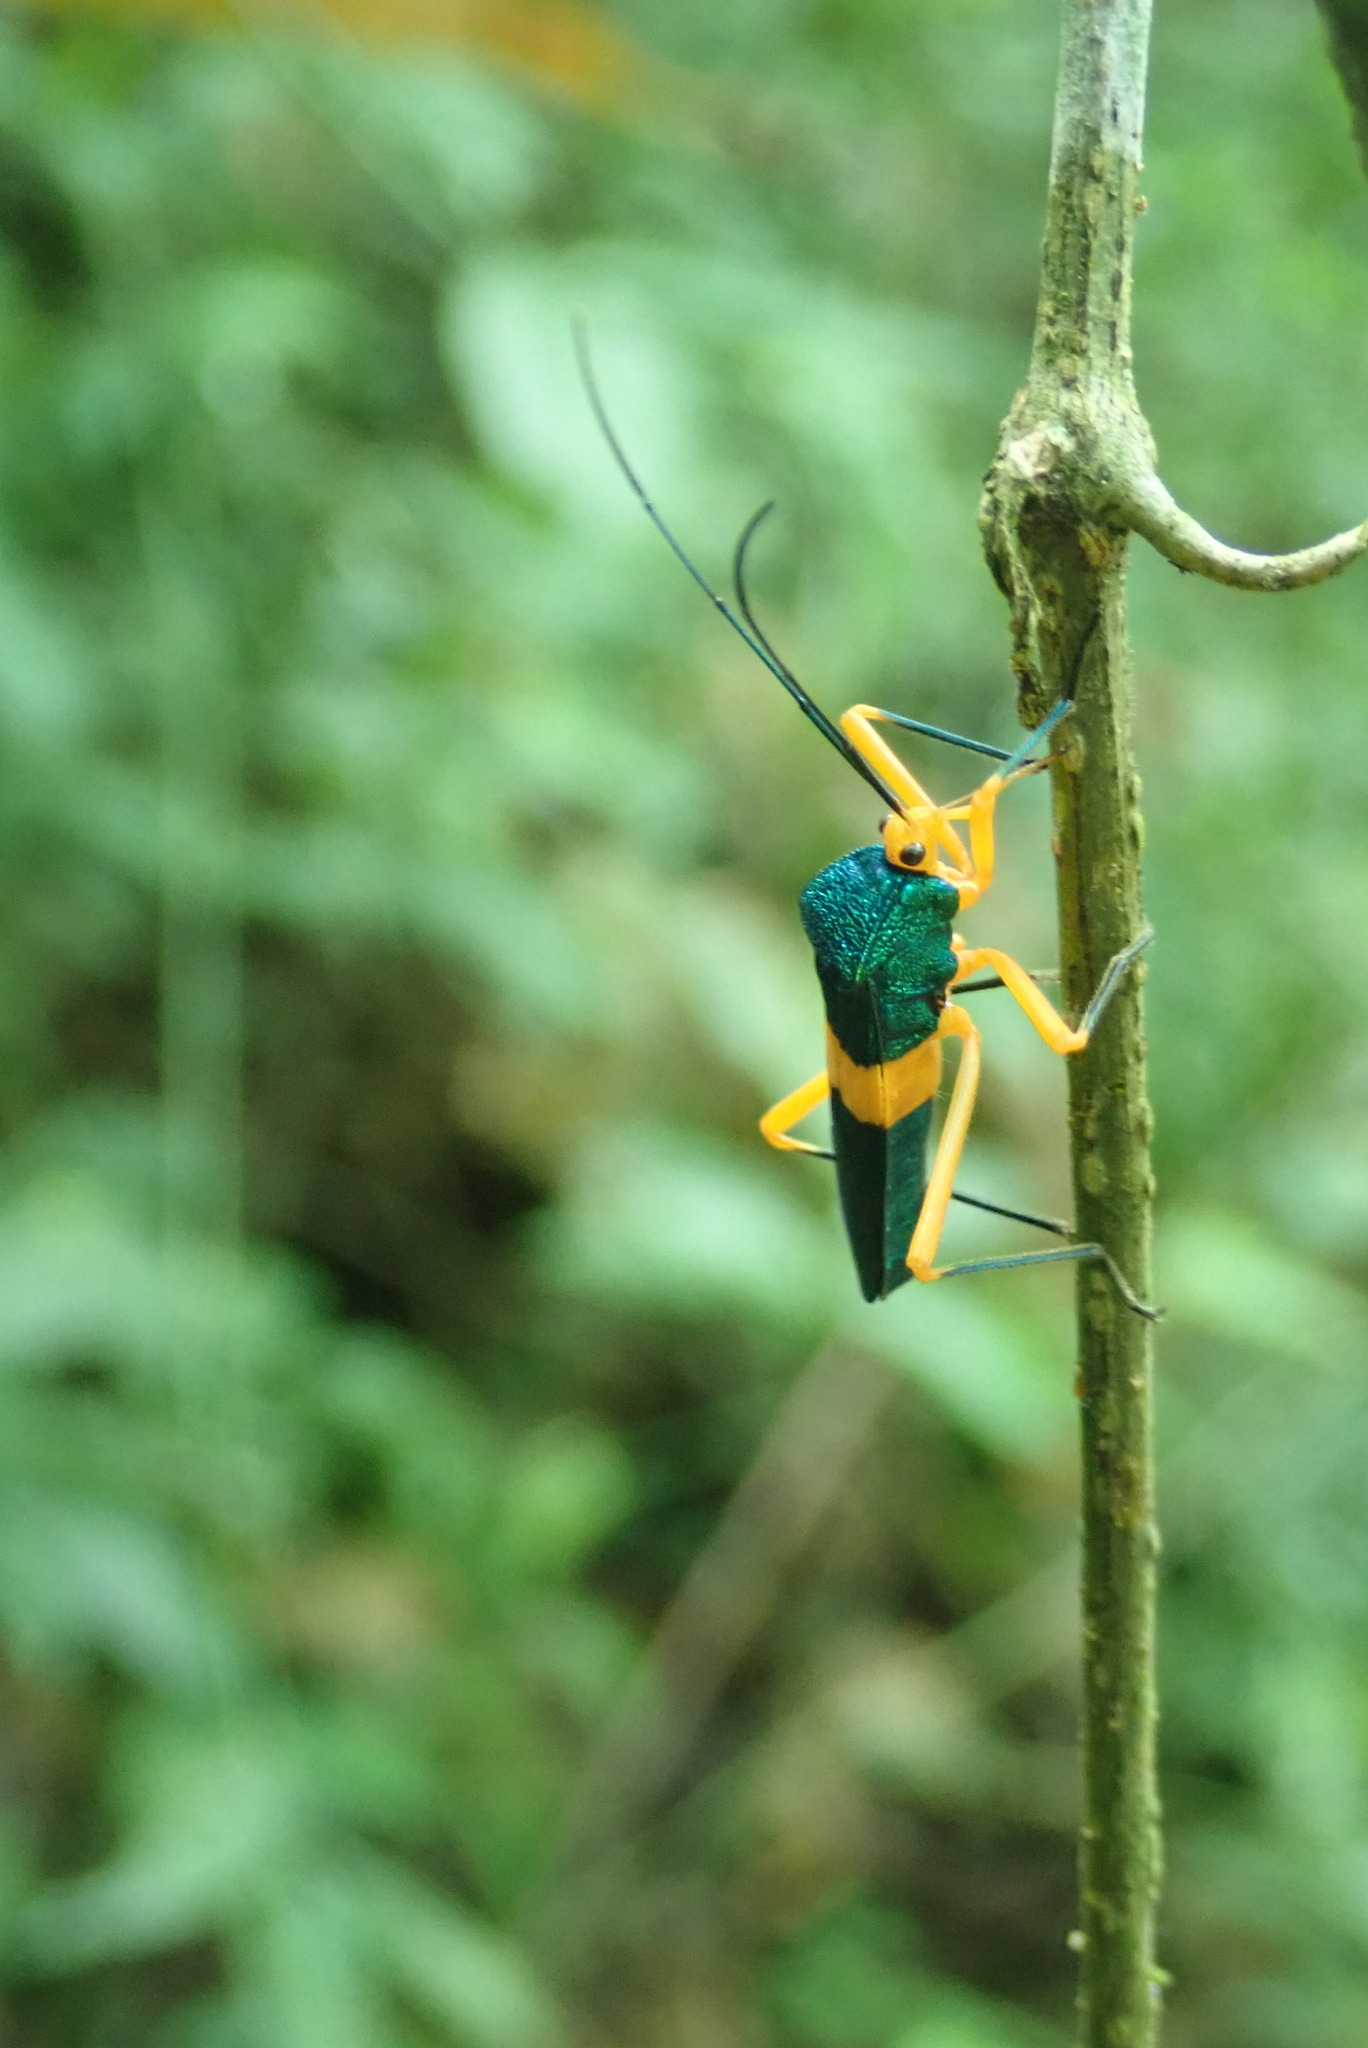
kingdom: Animalia
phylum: Arthropoda
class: Insecta
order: Hemiptera
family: Coreidae
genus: Paryphes
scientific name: Paryphes
